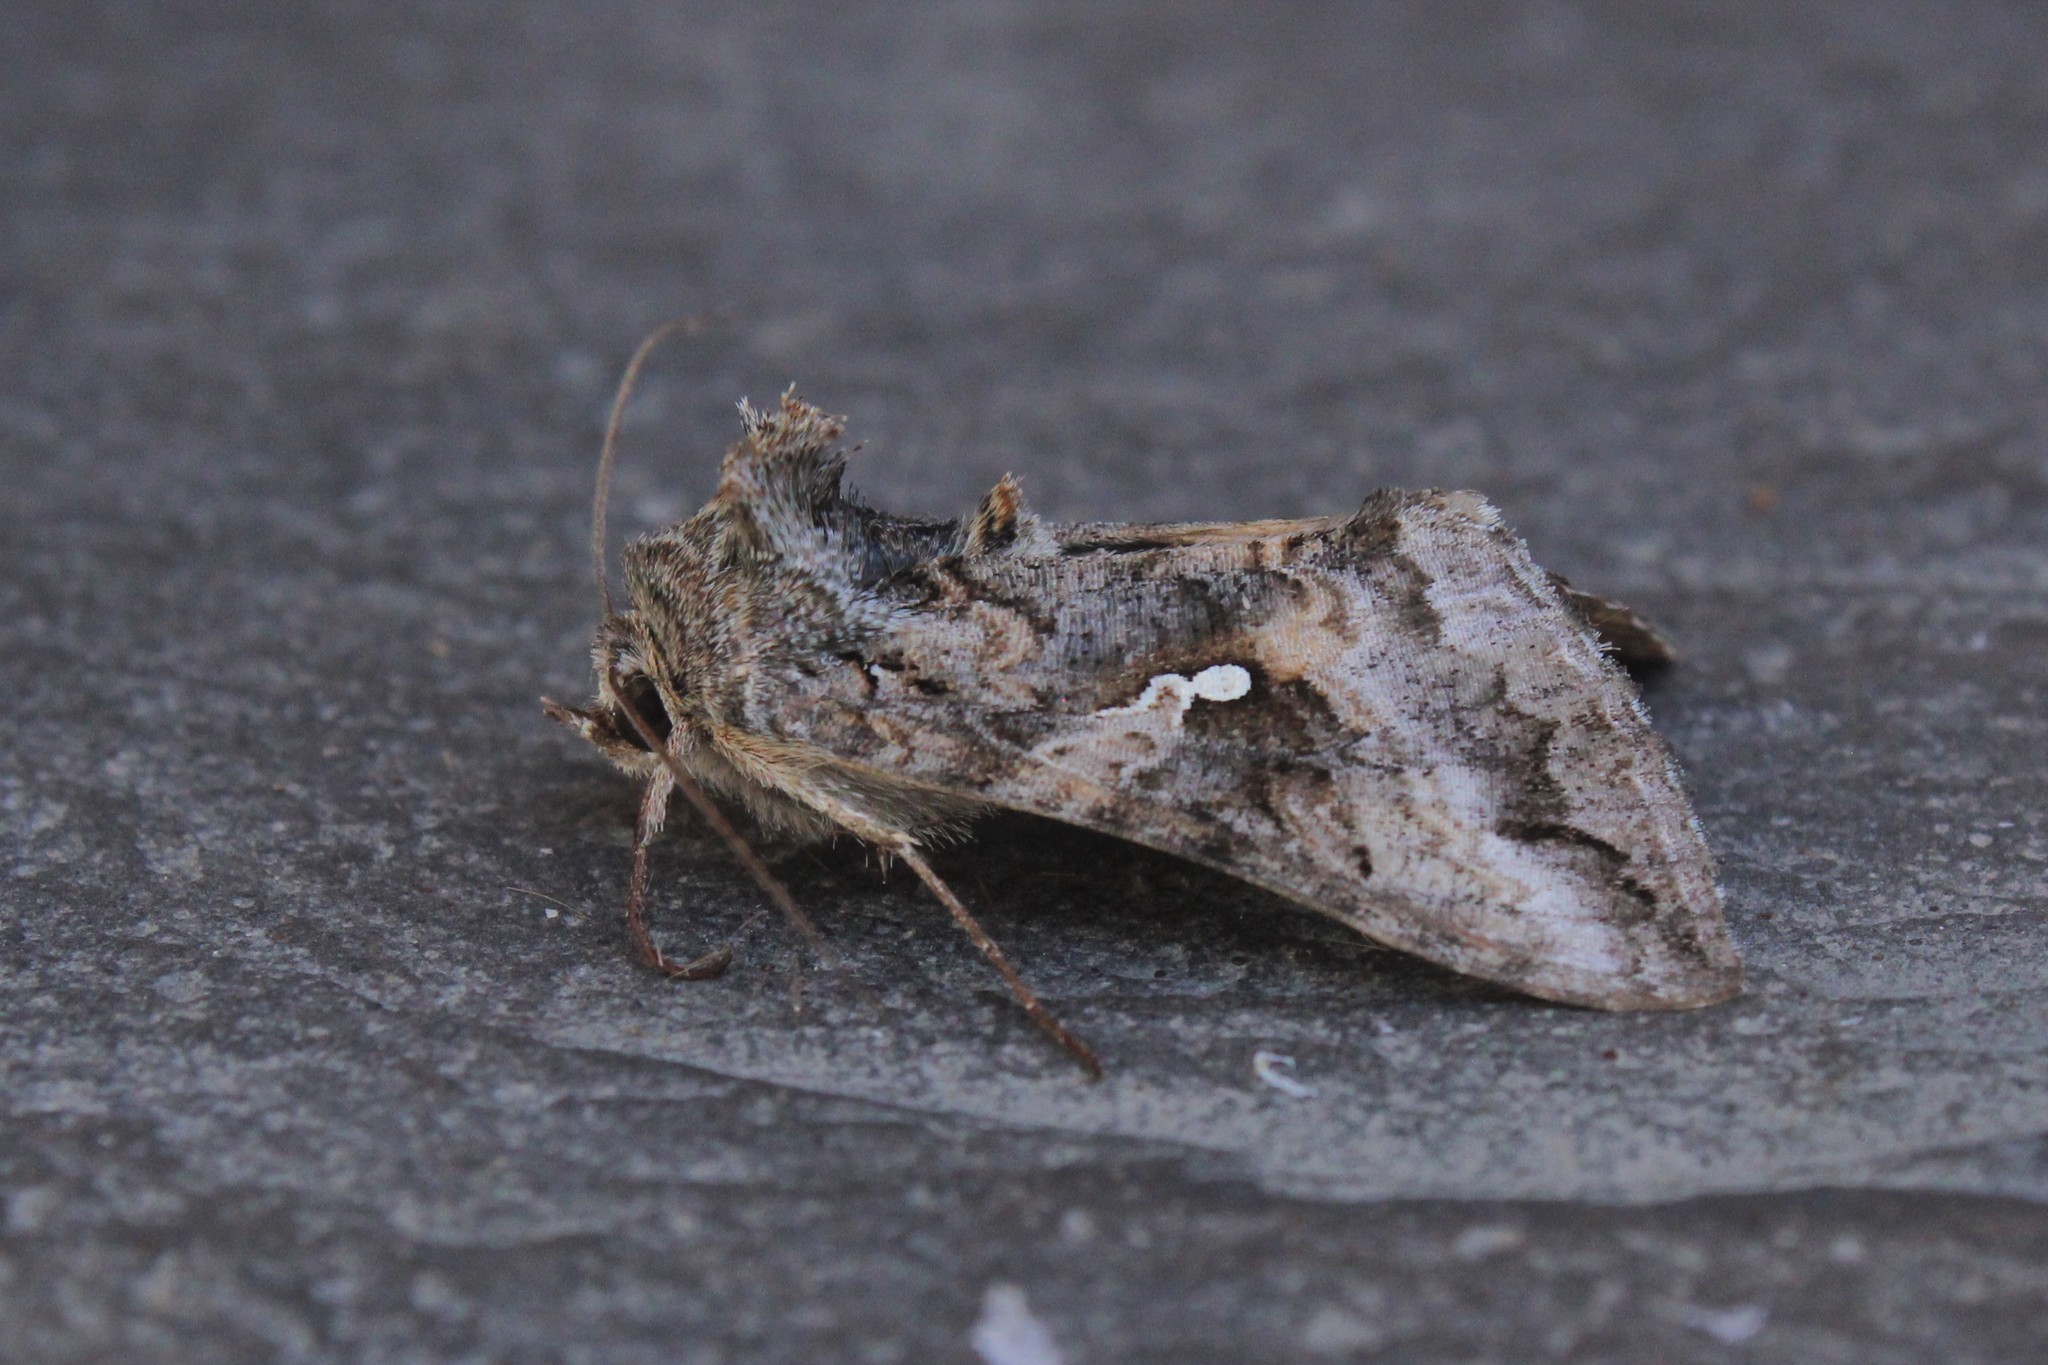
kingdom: Animalia
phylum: Arthropoda
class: Insecta
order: Lepidoptera
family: Noctuidae
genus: Rachiplusia
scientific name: Rachiplusia ou
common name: Gray looper moth
